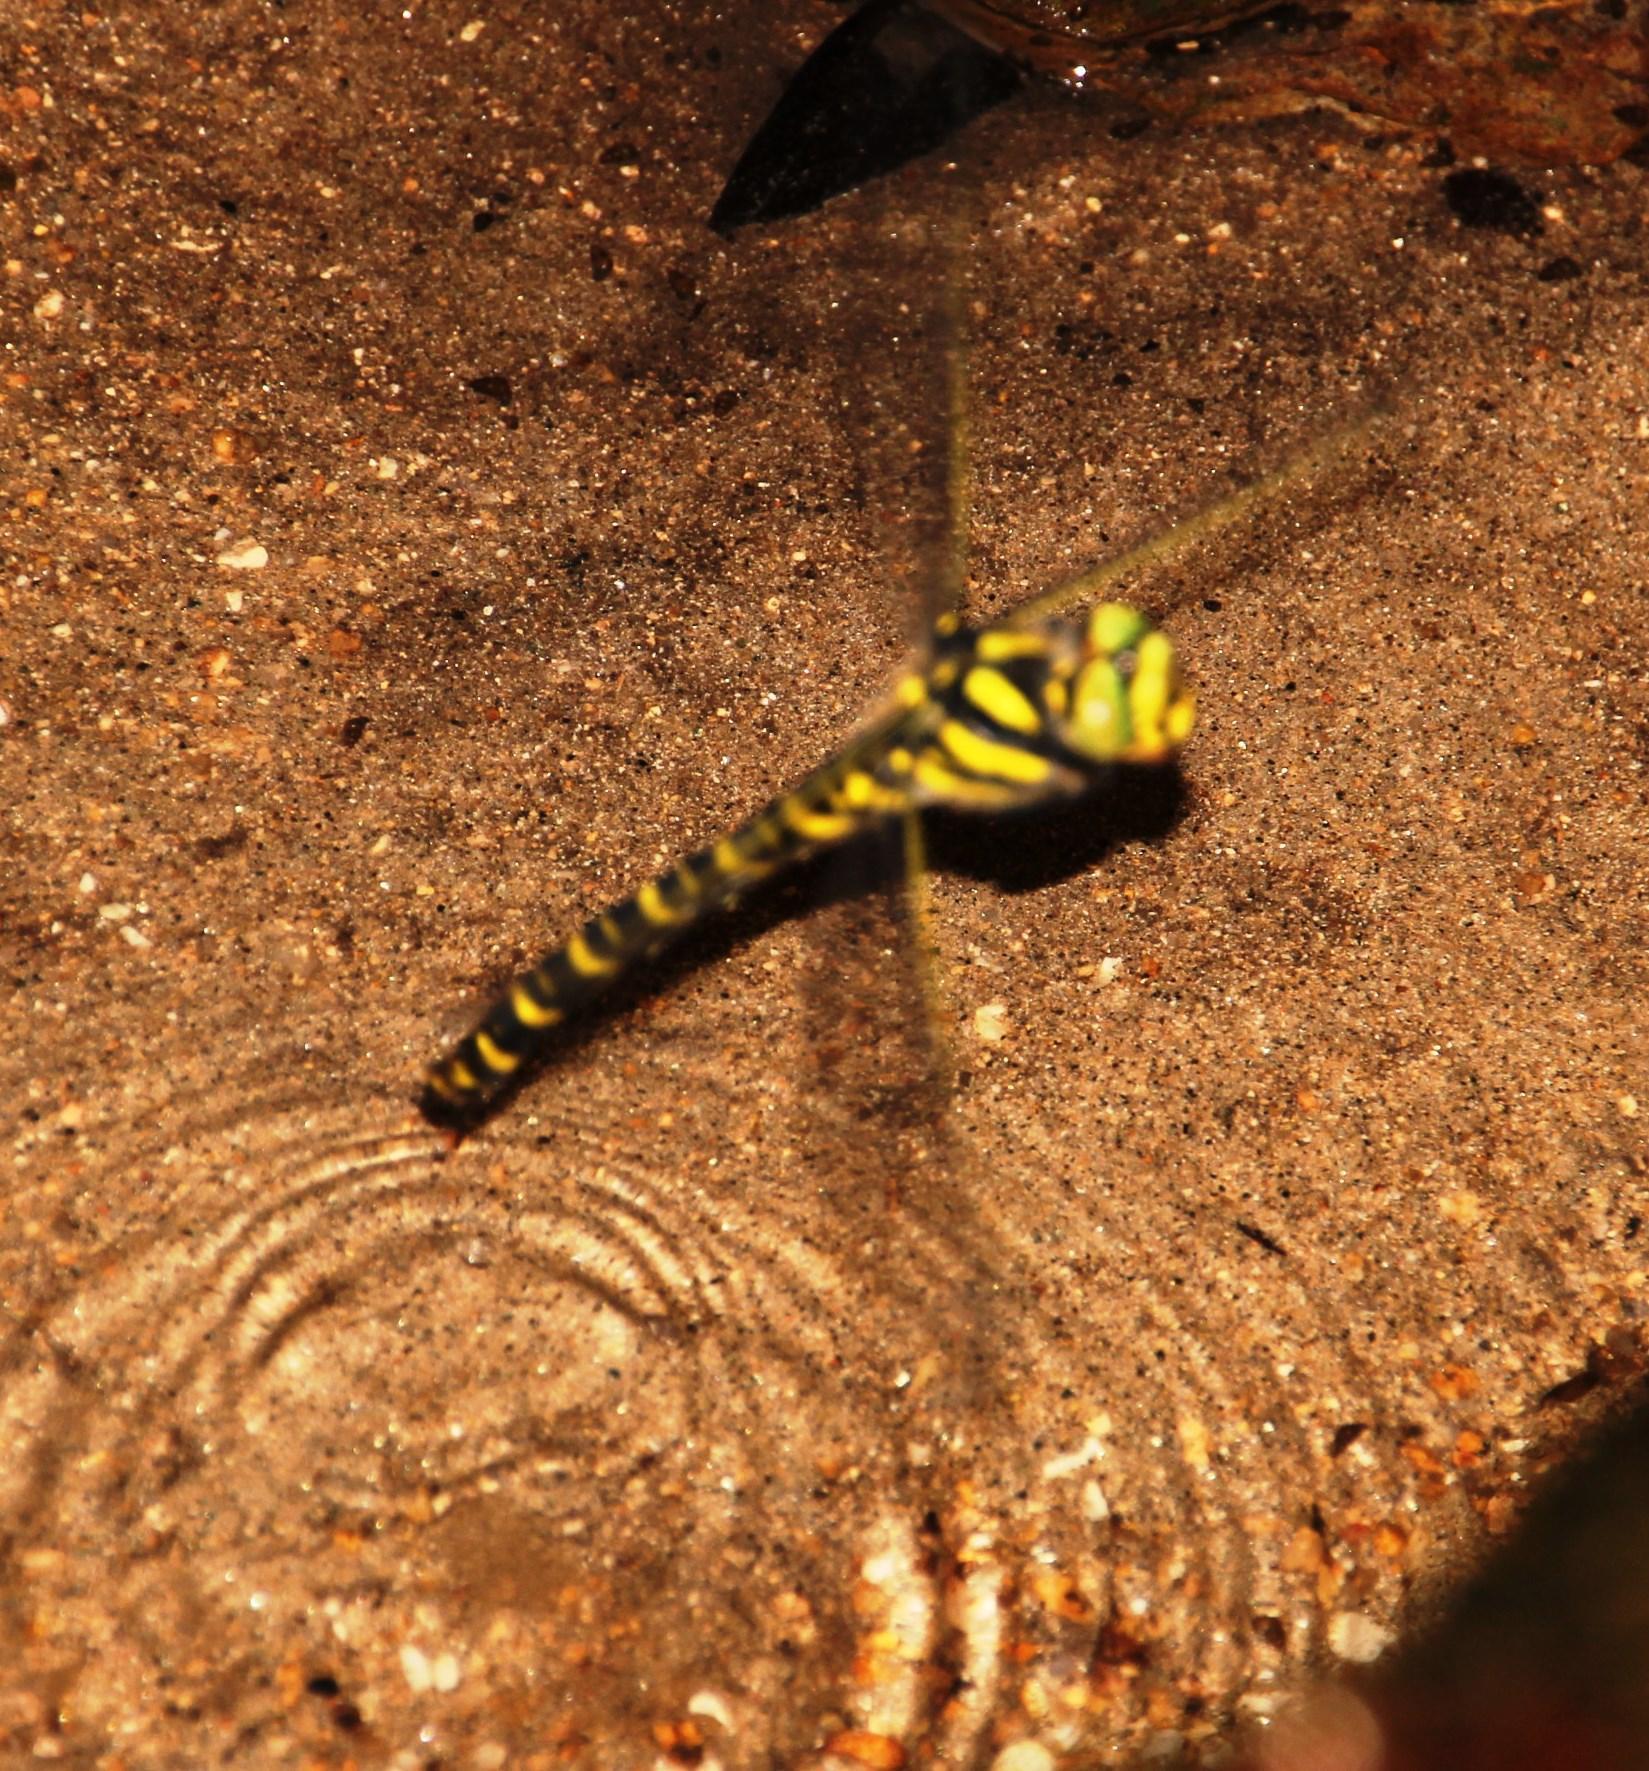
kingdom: Animalia
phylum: Arthropoda
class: Insecta
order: Odonata
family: Cordulegastridae
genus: Cordulegaster
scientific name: Cordulegaster boltonii
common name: Golden-ringed dragonfly
